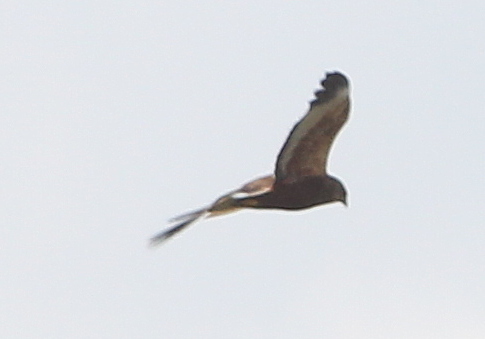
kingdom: Animalia
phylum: Chordata
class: Aves
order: Accipitriformes
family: Accipitridae
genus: Circus
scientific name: Circus aeruginosus
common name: Western marsh harrier
